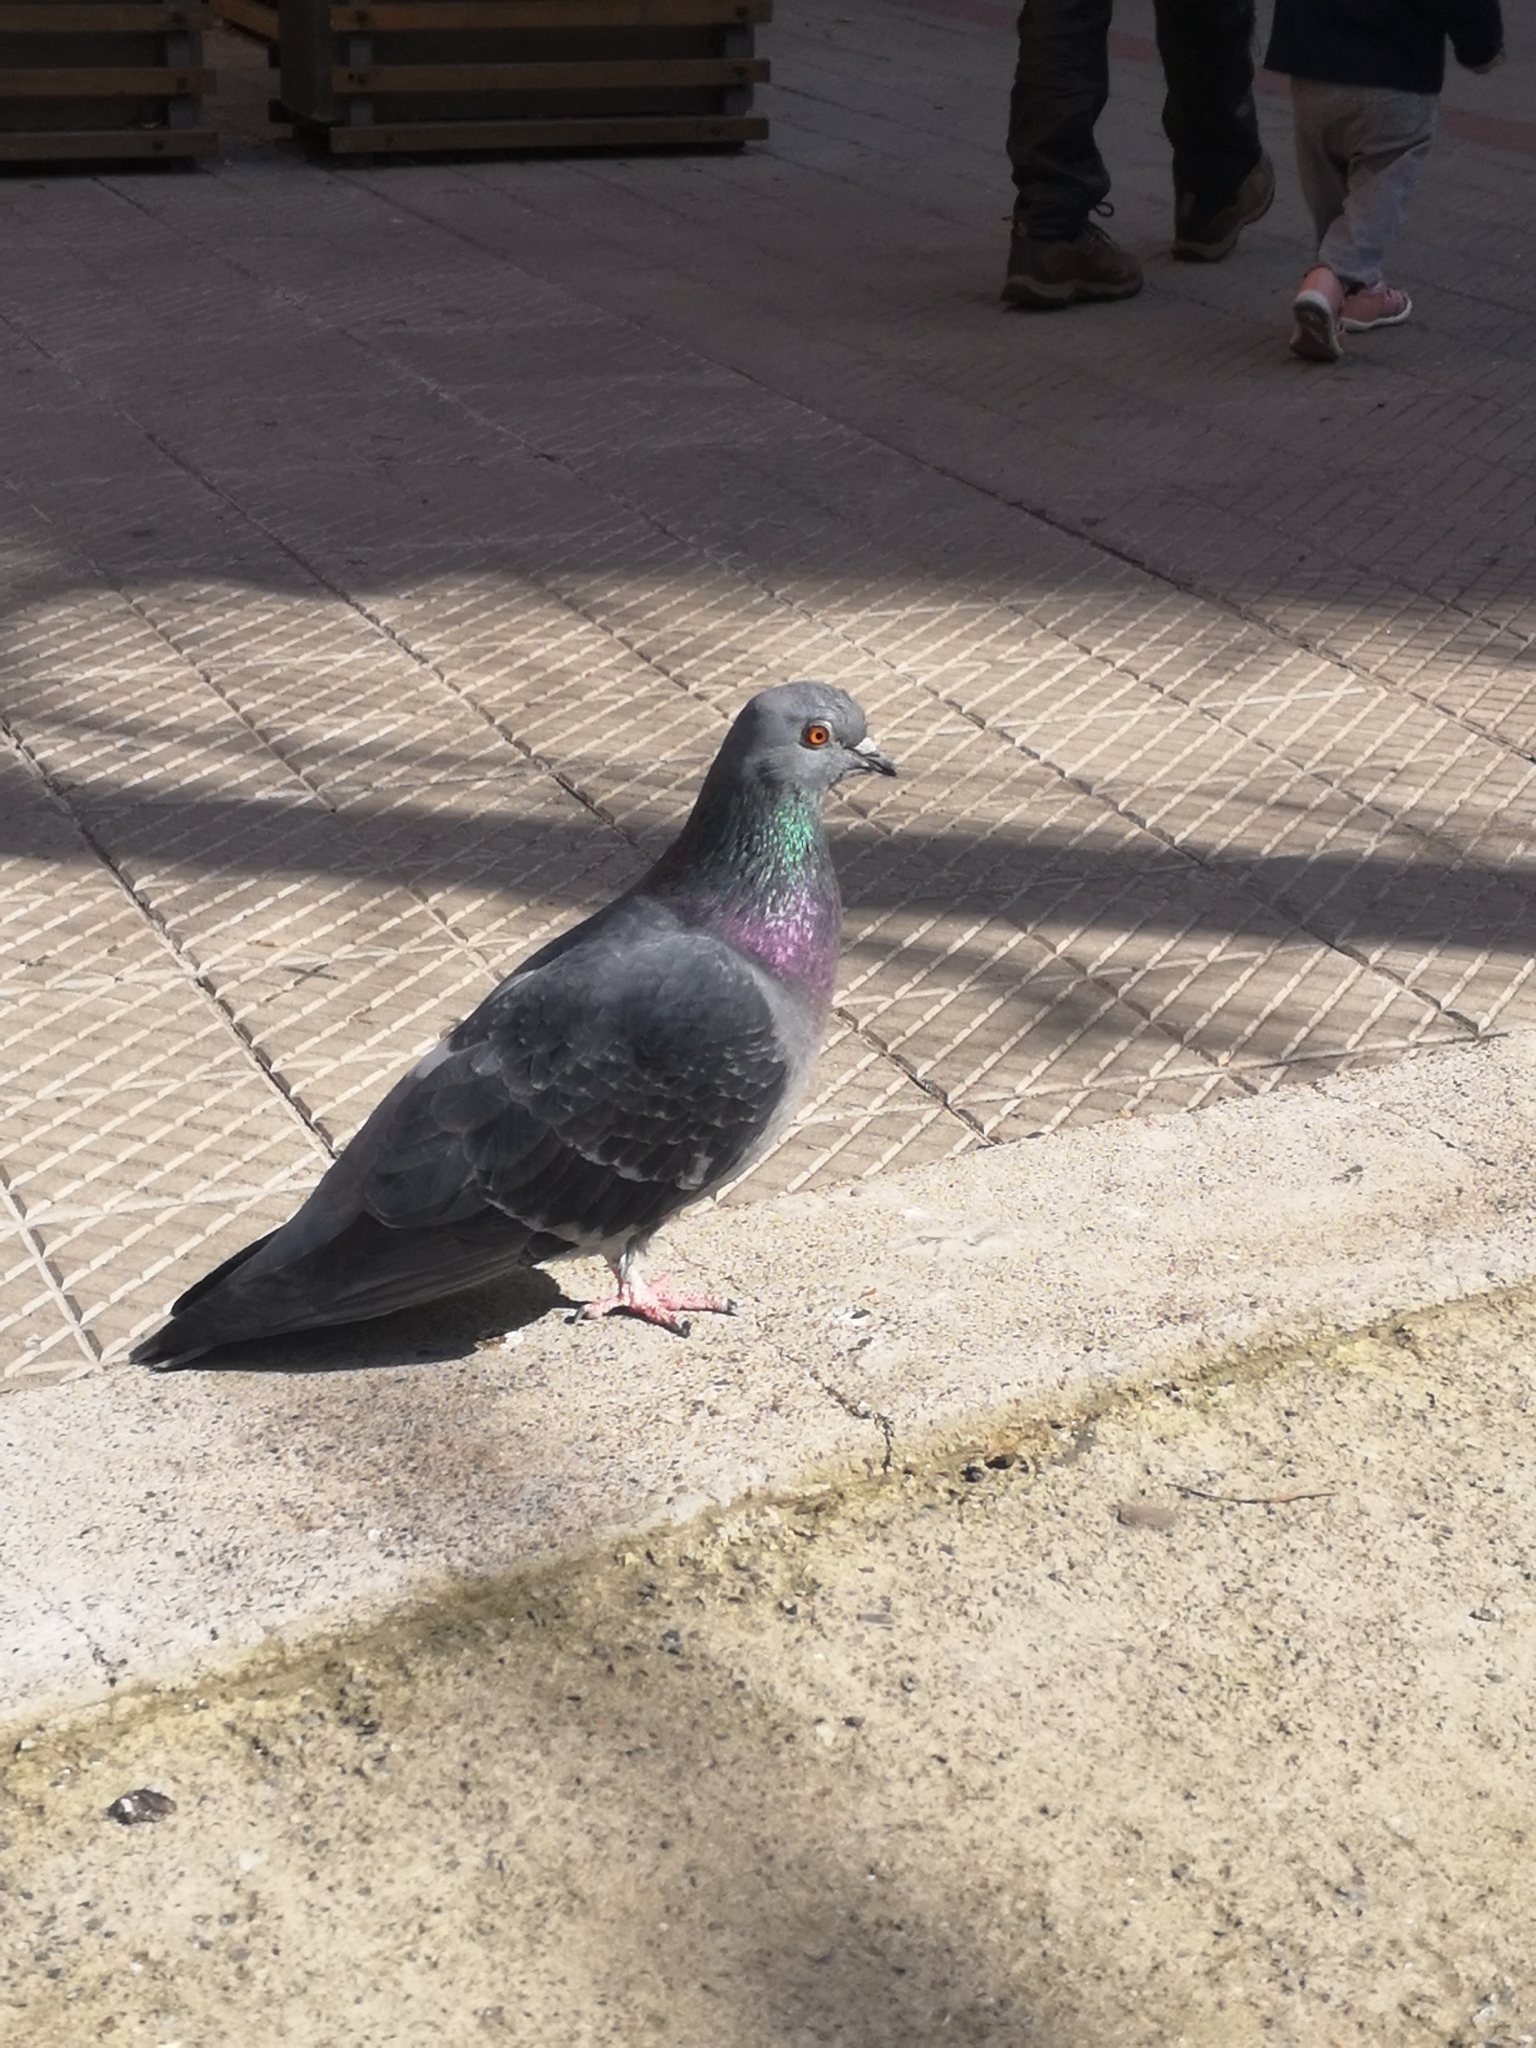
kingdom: Animalia
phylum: Chordata
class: Aves
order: Columbiformes
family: Columbidae
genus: Columba
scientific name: Columba livia
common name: Rock pigeon
